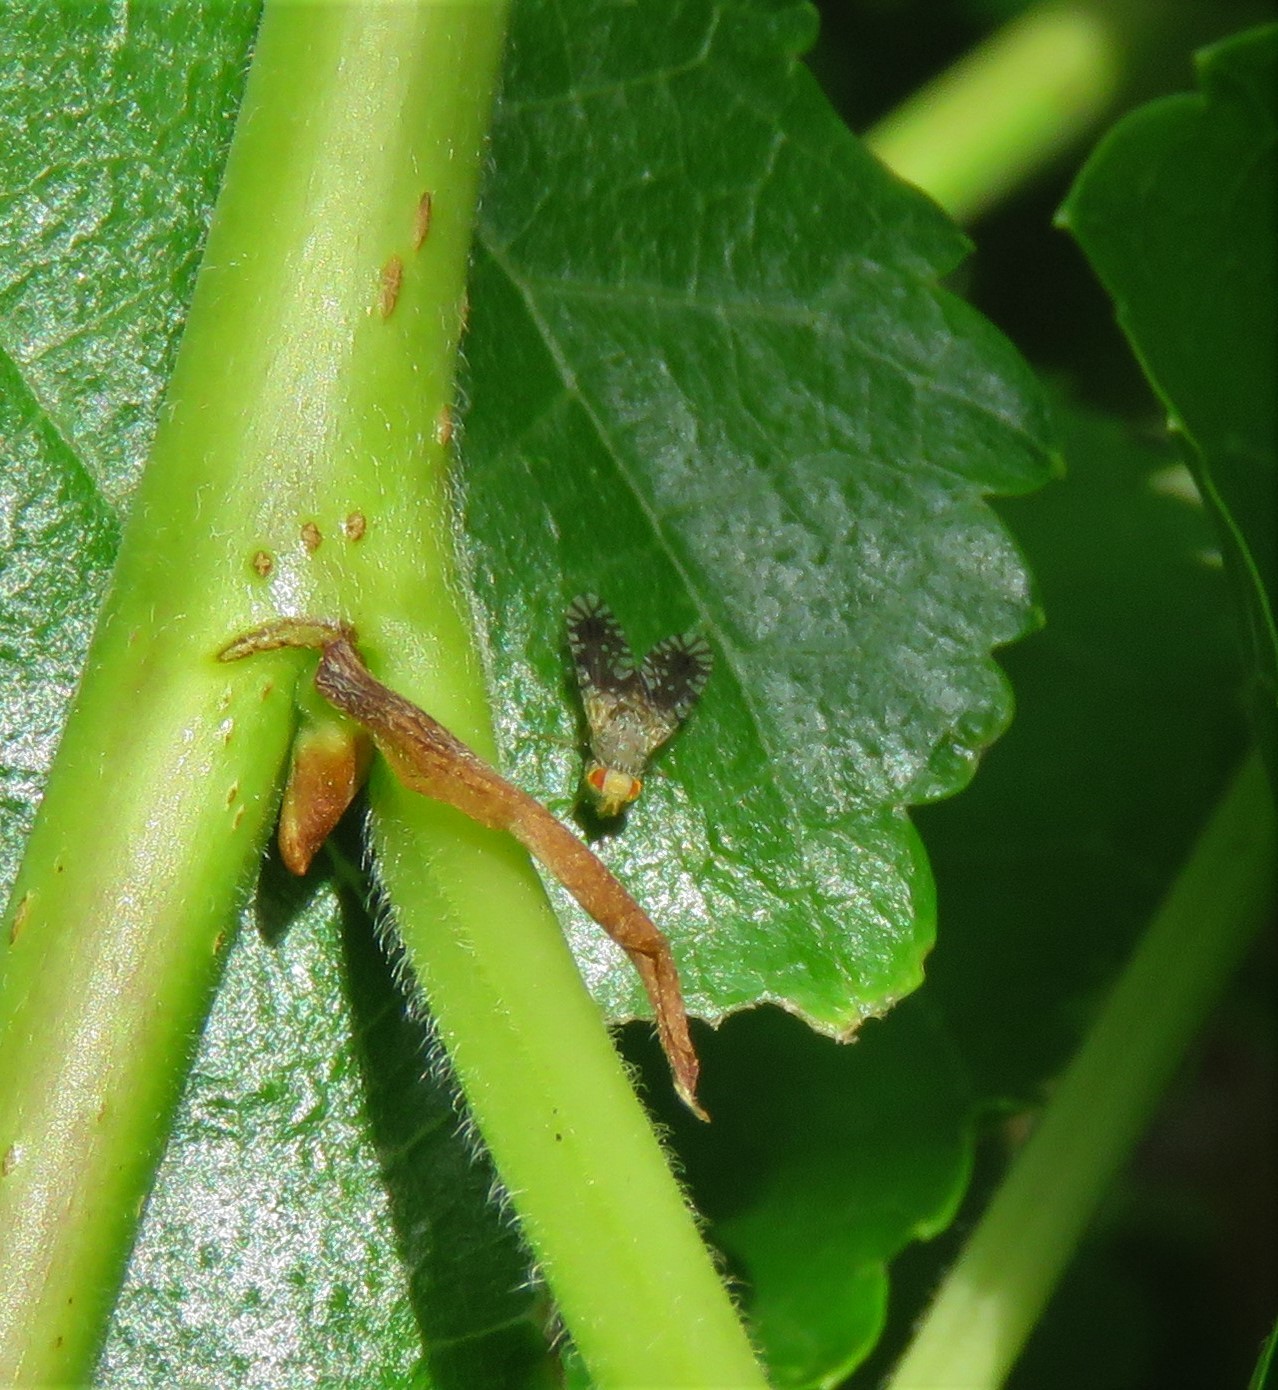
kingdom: Animalia
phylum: Arthropoda
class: Insecta
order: Diptera
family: Tephritidae
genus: Euaresta
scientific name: Euaresta bella
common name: Common ragweed fruit fly
